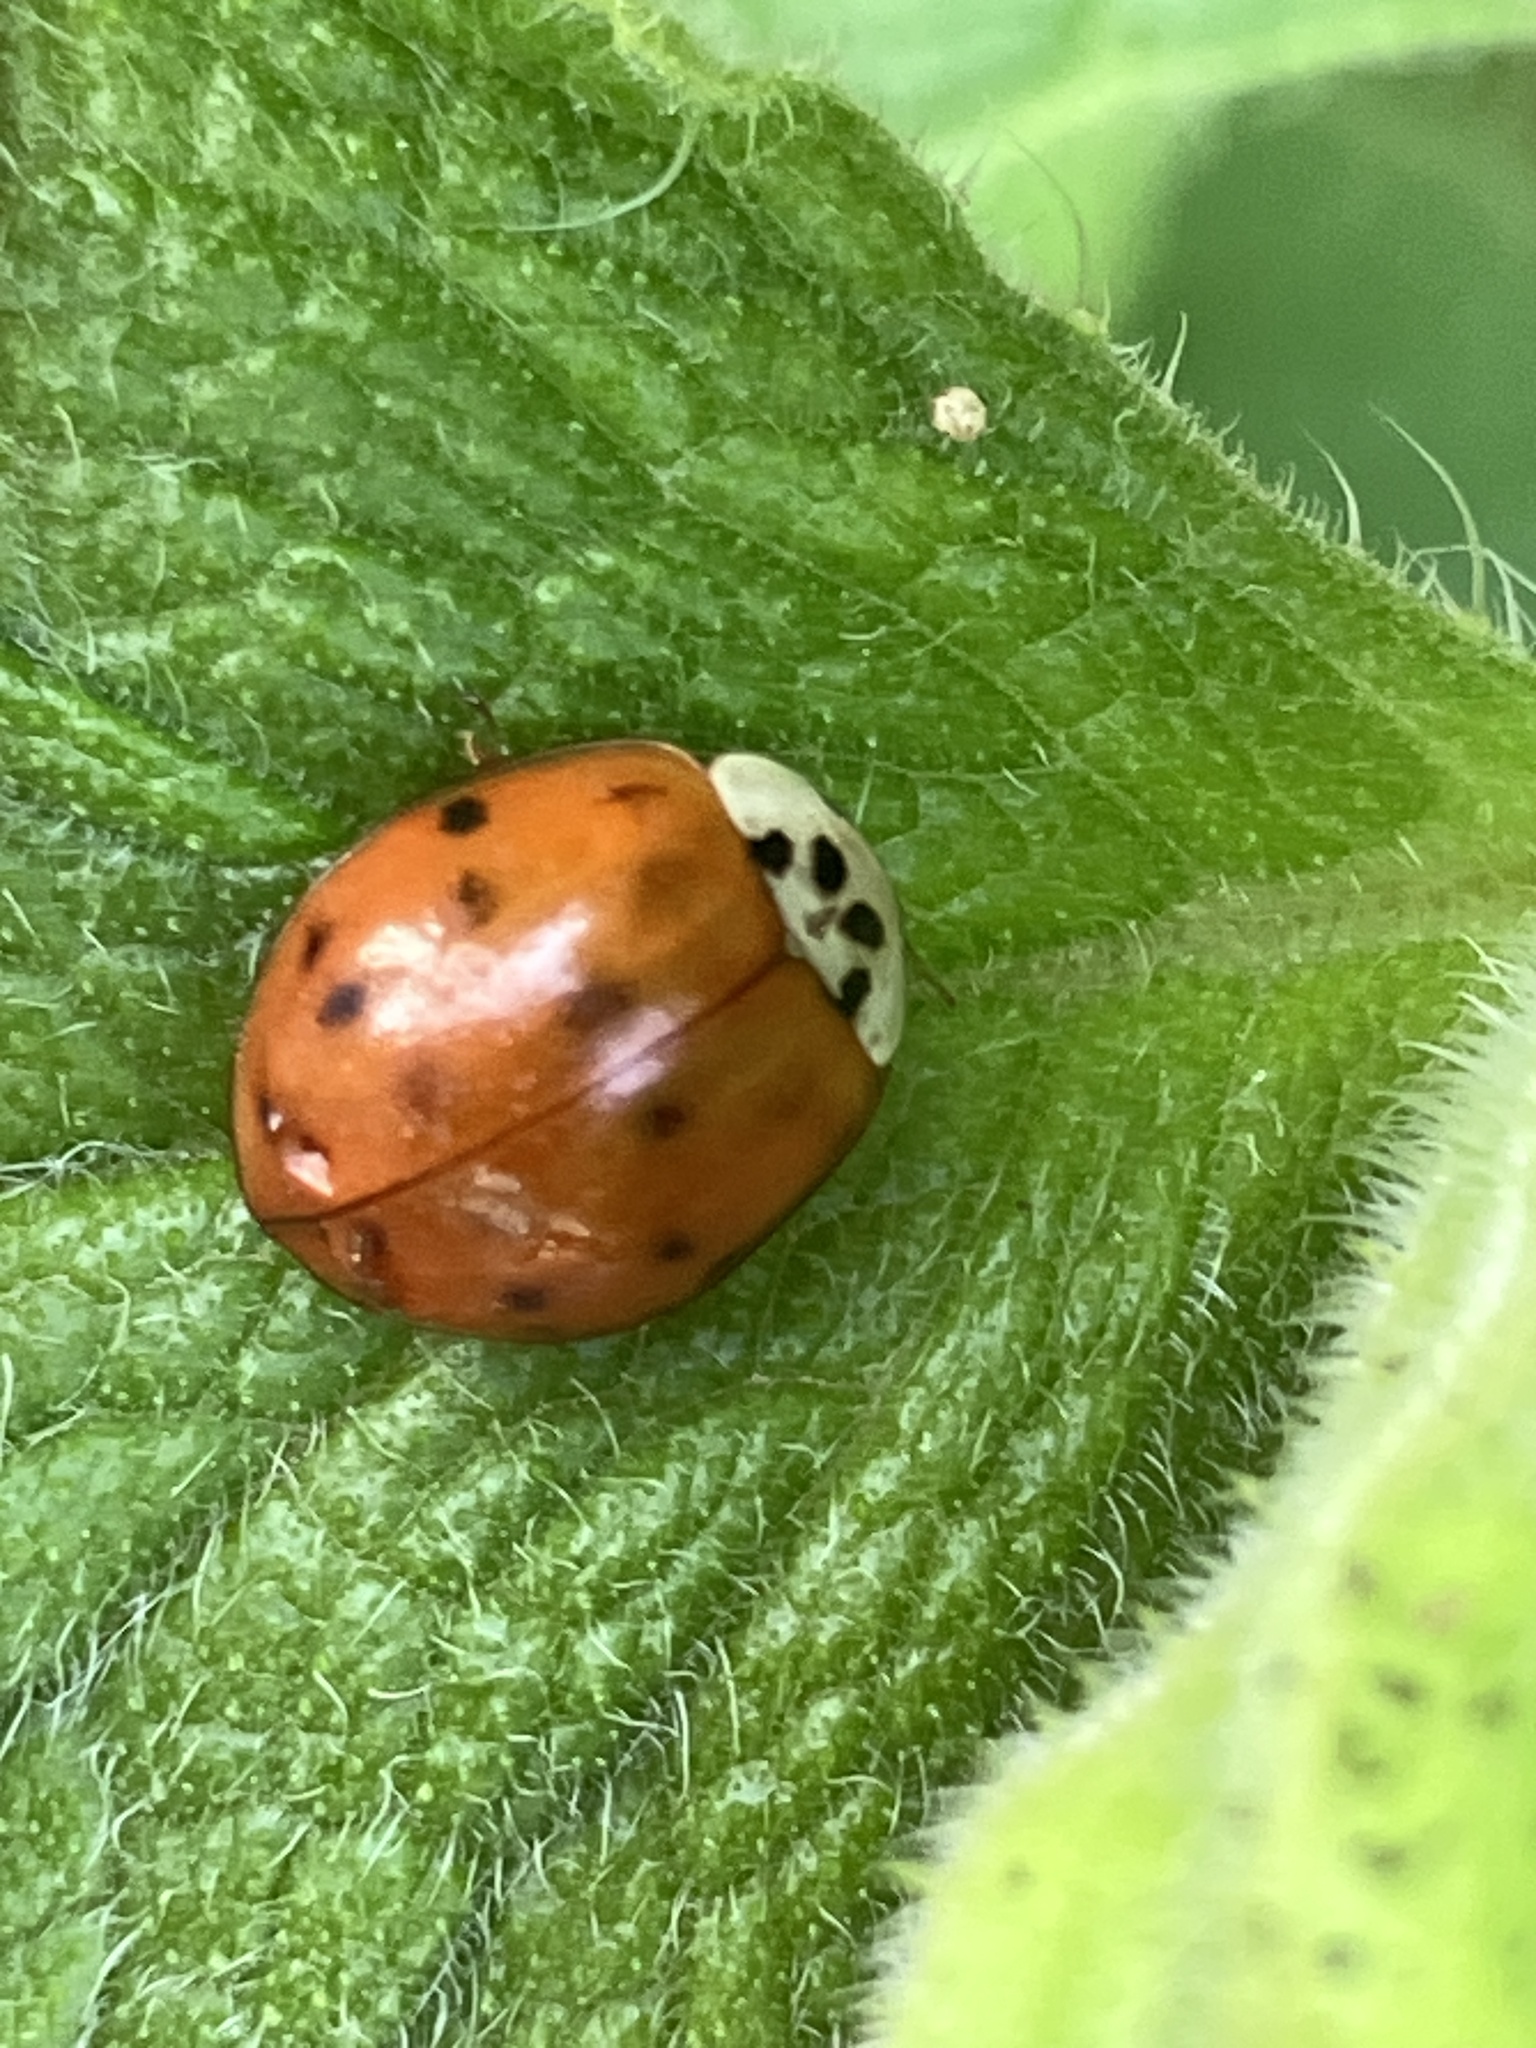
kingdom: Animalia
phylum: Arthropoda
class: Insecta
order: Coleoptera
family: Coccinellidae
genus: Harmonia
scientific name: Harmonia axyridis
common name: Harlequin ladybird
